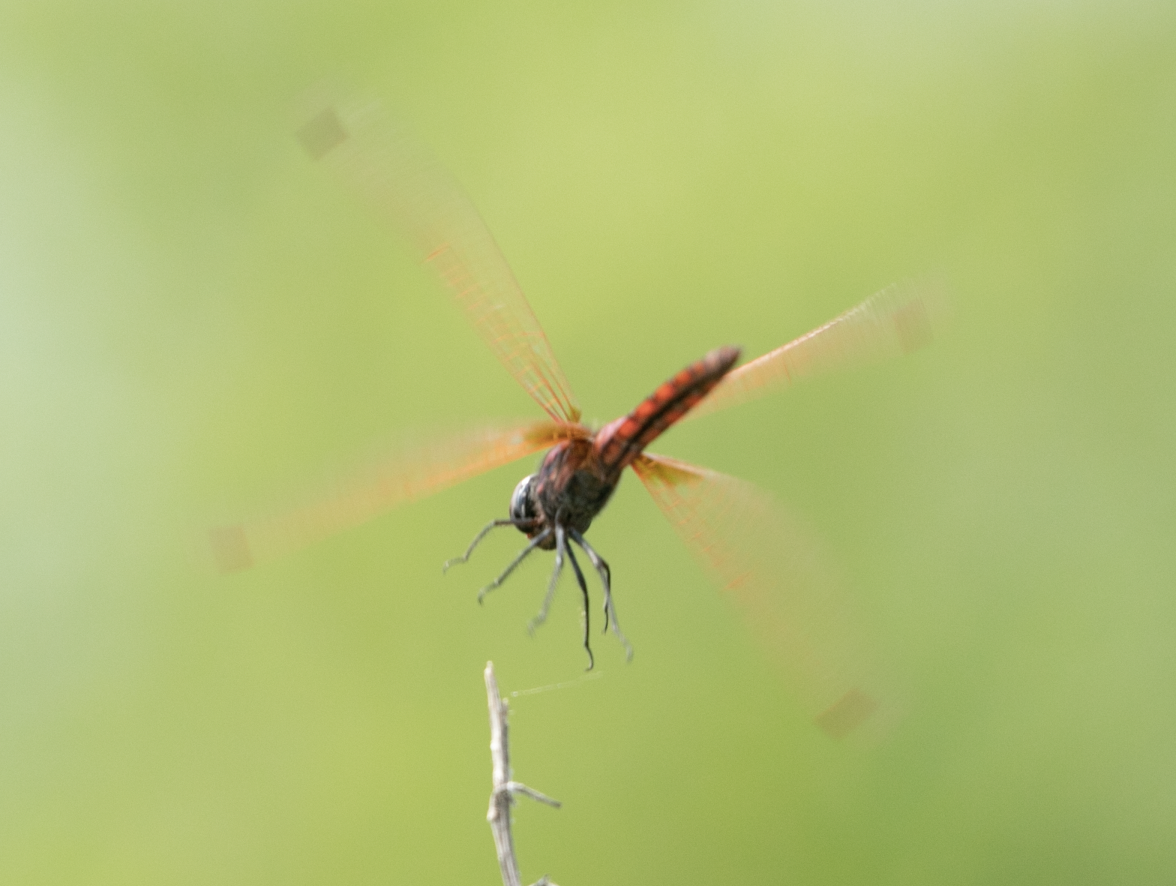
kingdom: Animalia
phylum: Arthropoda
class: Insecta
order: Odonata
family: Libellulidae
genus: Trithemis
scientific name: Trithemis annulata
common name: Violet dropwing
